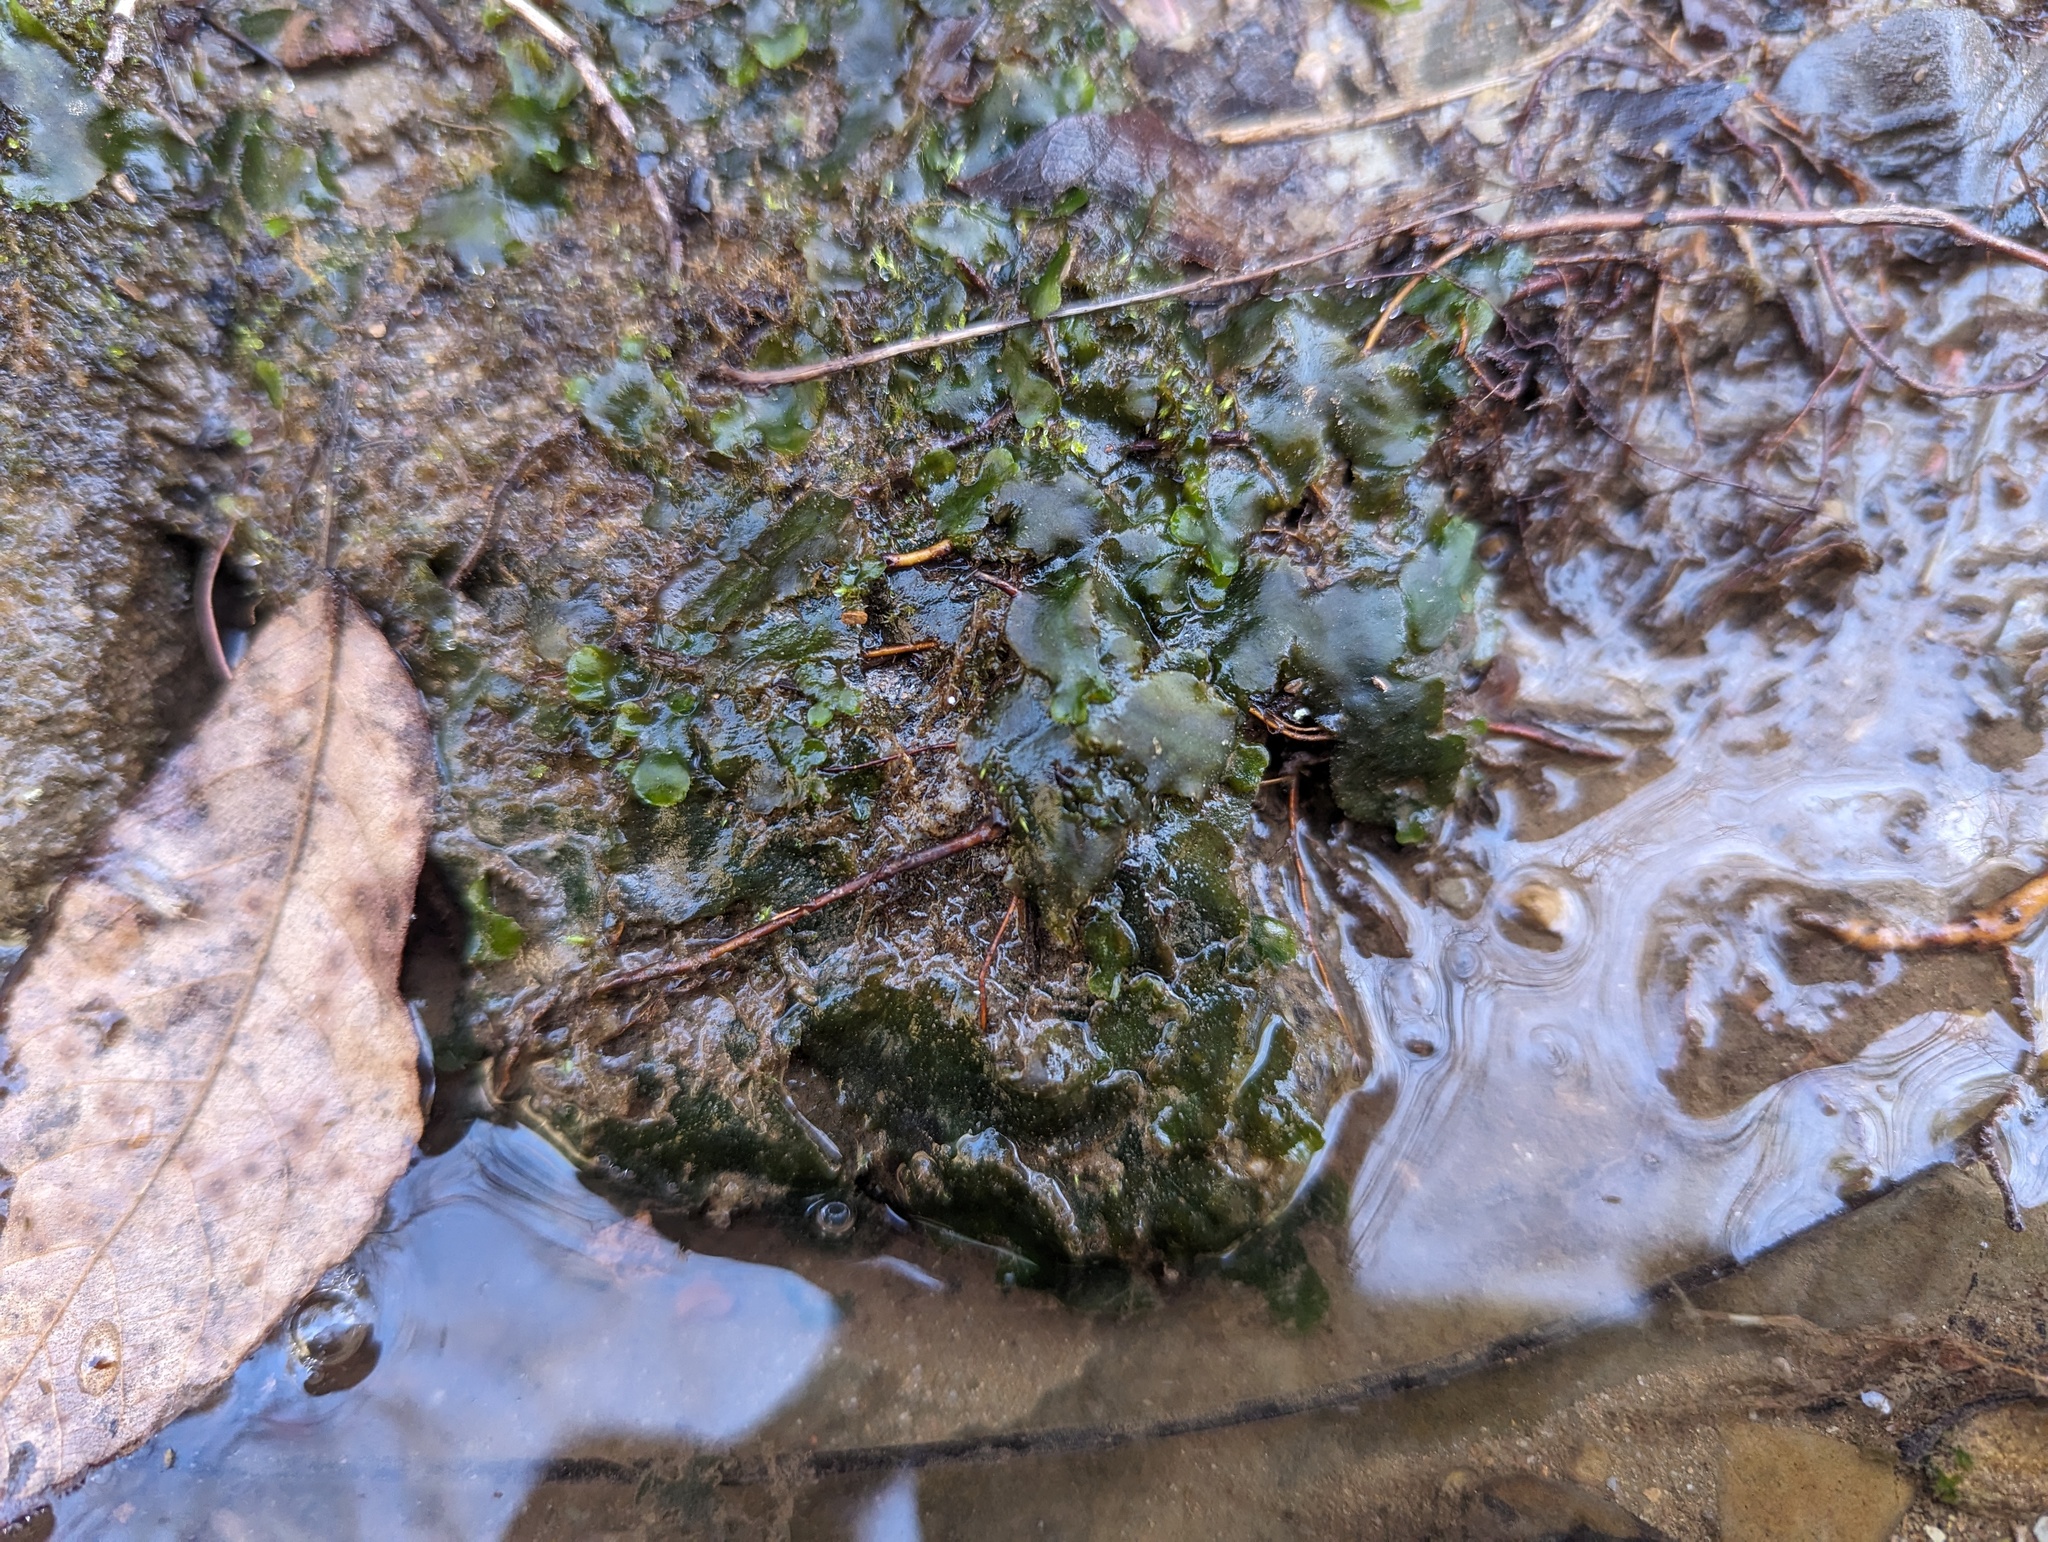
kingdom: Plantae
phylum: Marchantiophyta
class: Marchantiopsida
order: Marchantiales
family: Dumortieraceae
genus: Dumortiera
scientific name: Dumortiera hirsuta
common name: Dumortier's liverwort
